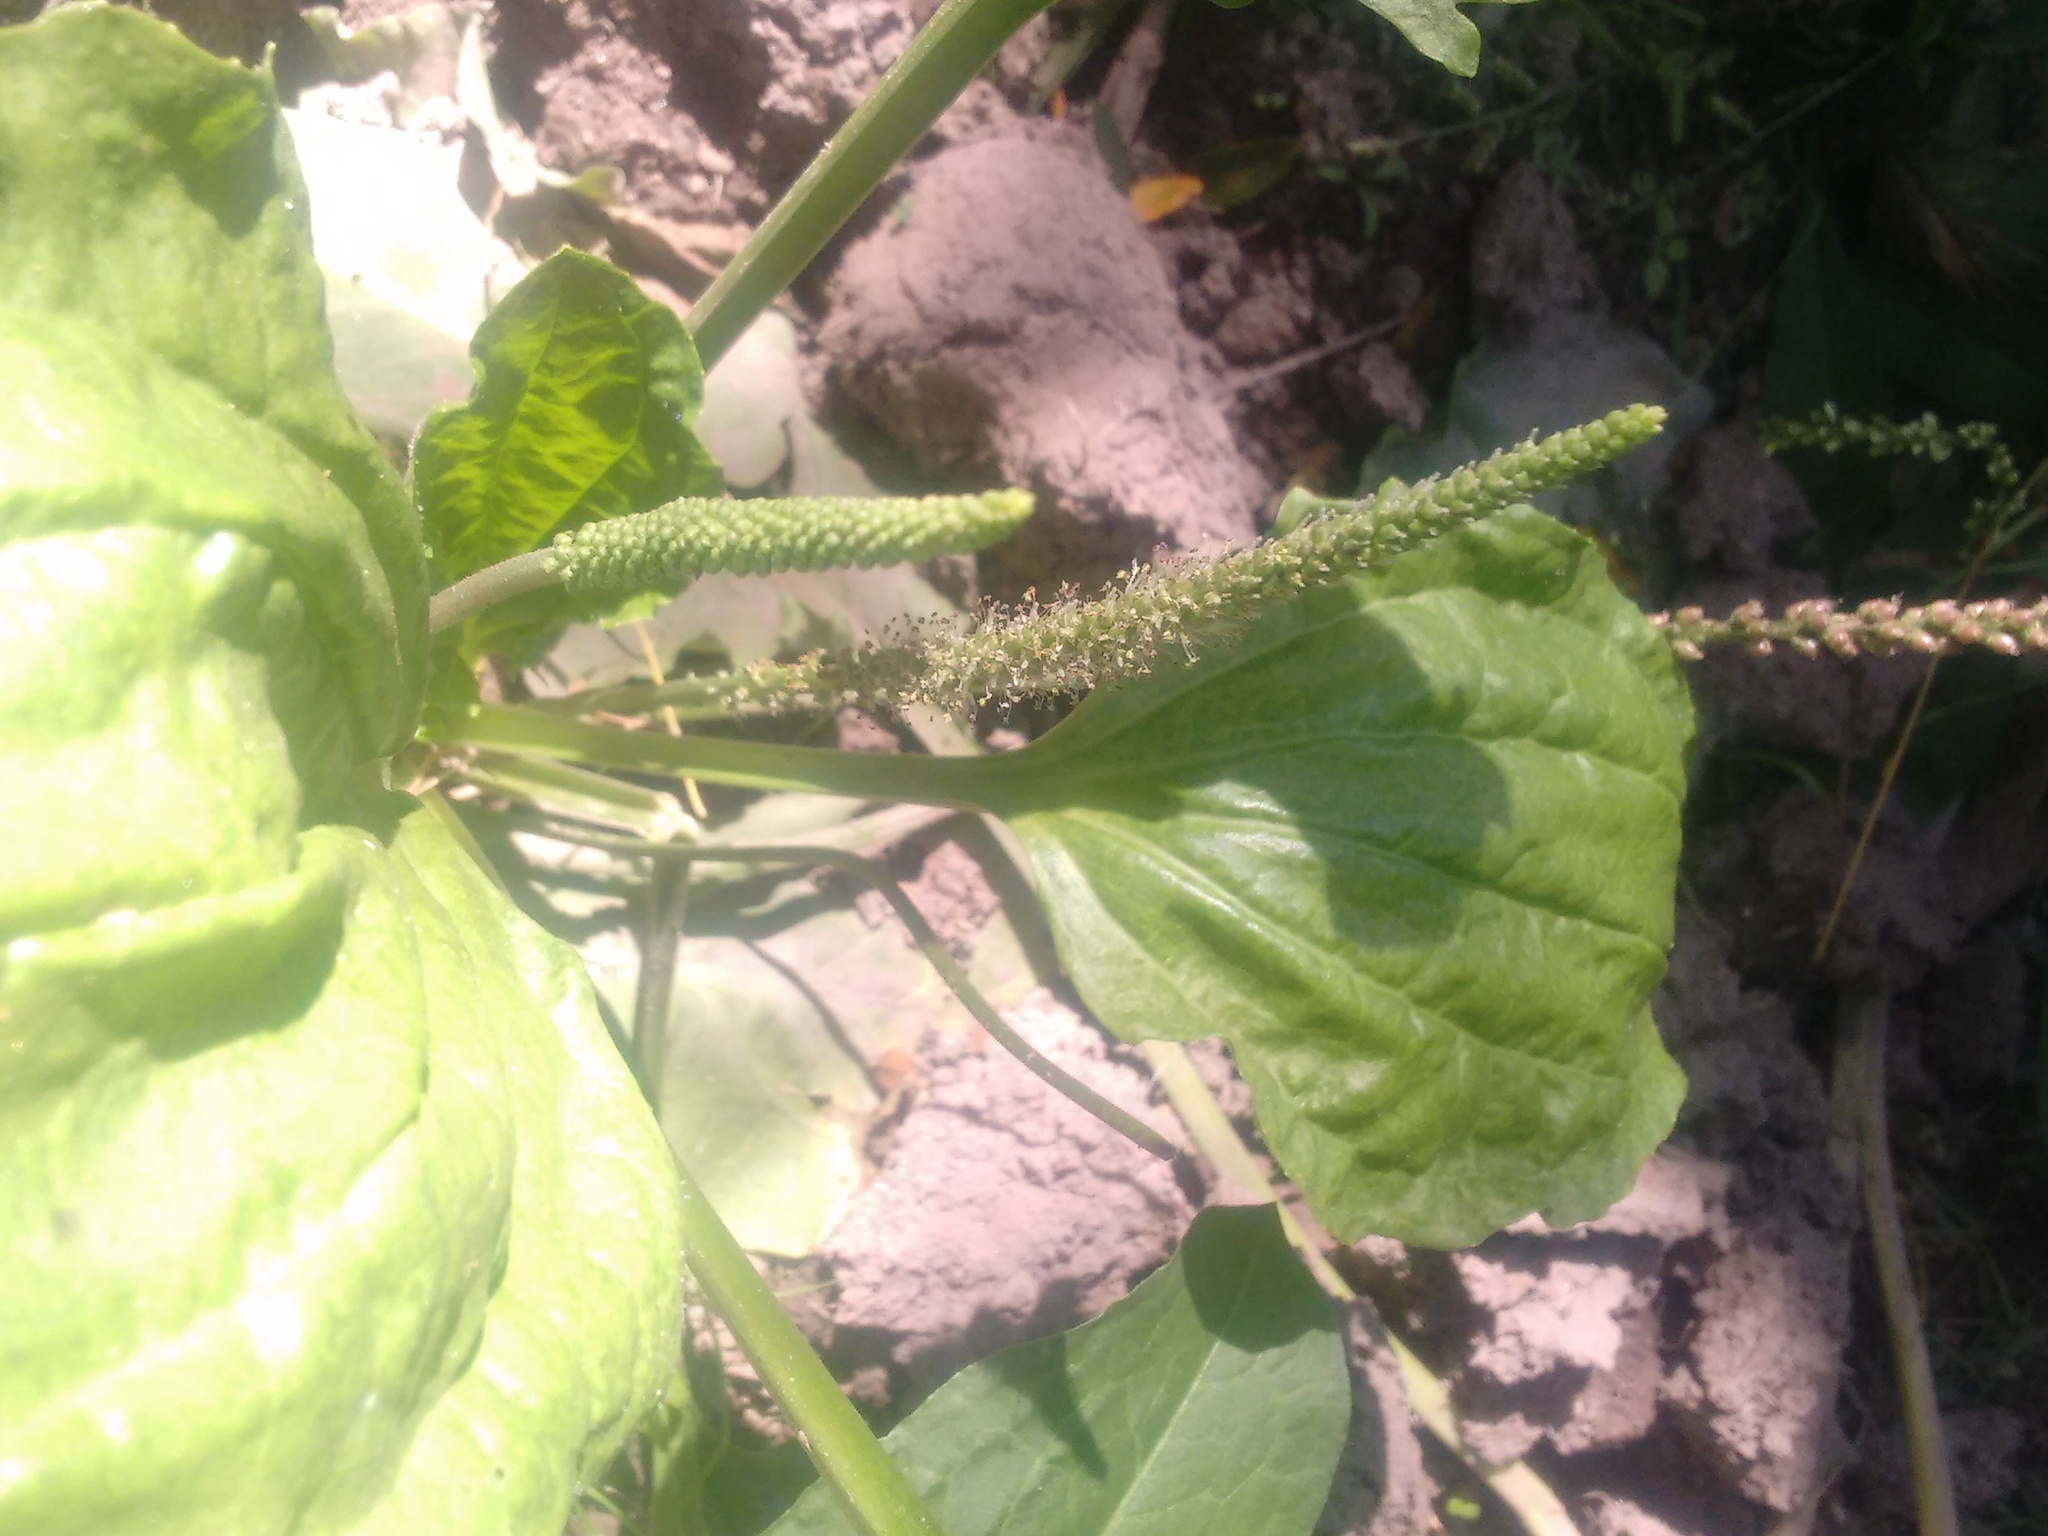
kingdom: Plantae
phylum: Tracheophyta
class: Magnoliopsida
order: Lamiales
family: Plantaginaceae
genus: Plantago
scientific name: Plantago major
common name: Common plantain
